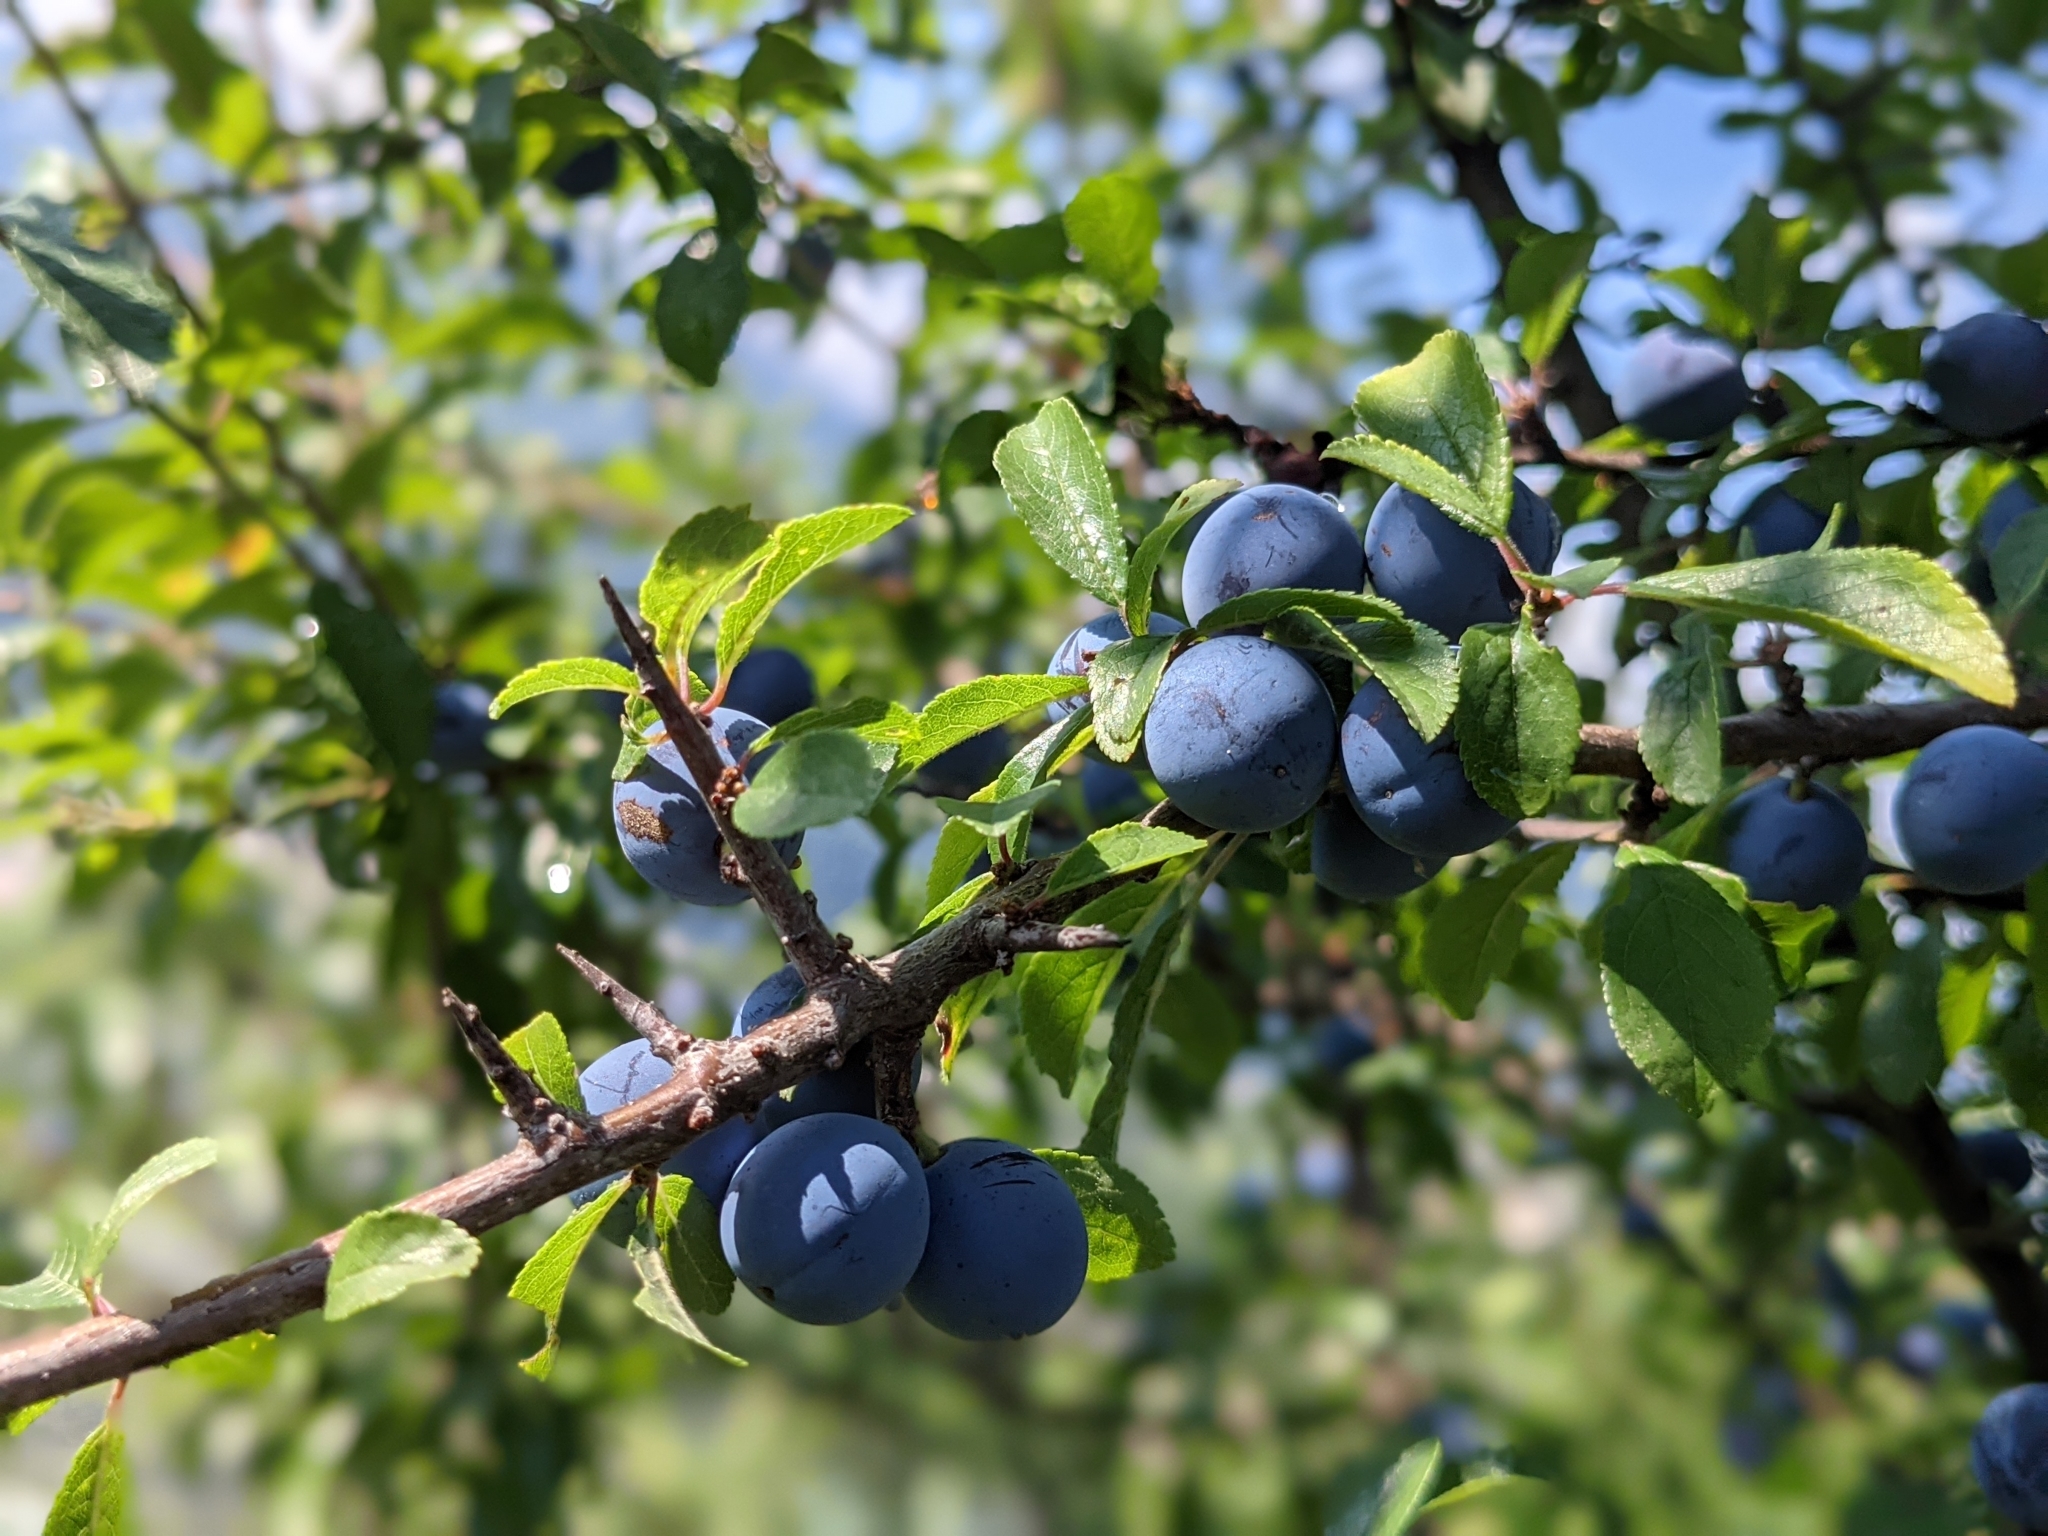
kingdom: Plantae
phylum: Tracheophyta
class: Magnoliopsida
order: Rosales
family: Rosaceae
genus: Prunus
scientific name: Prunus spinosa
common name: Blackthorn
